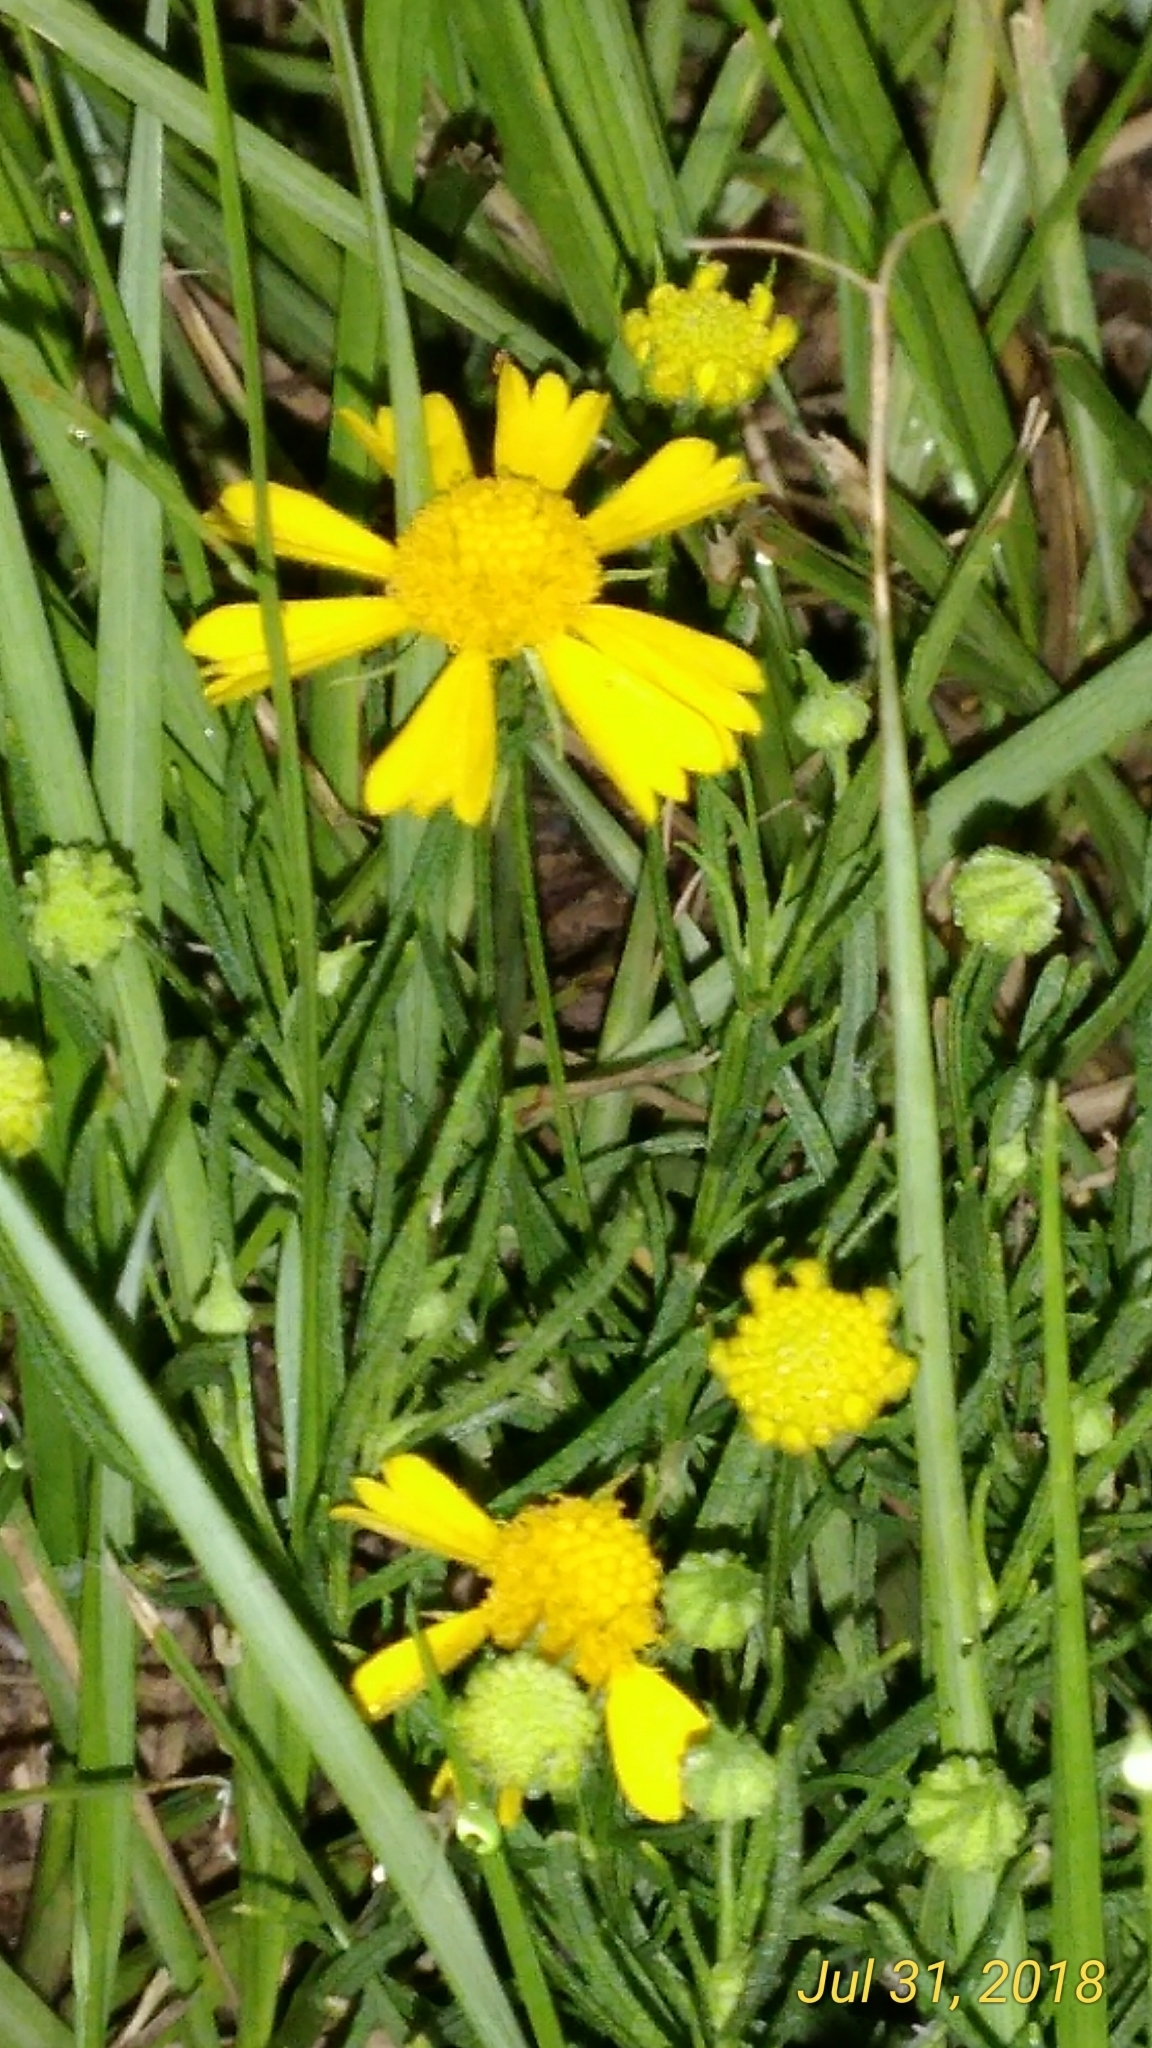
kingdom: Plantae
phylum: Tracheophyta
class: Magnoliopsida
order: Asterales
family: Asteraceae
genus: Helenium
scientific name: Helenium autumnale
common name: Sneezeweed
